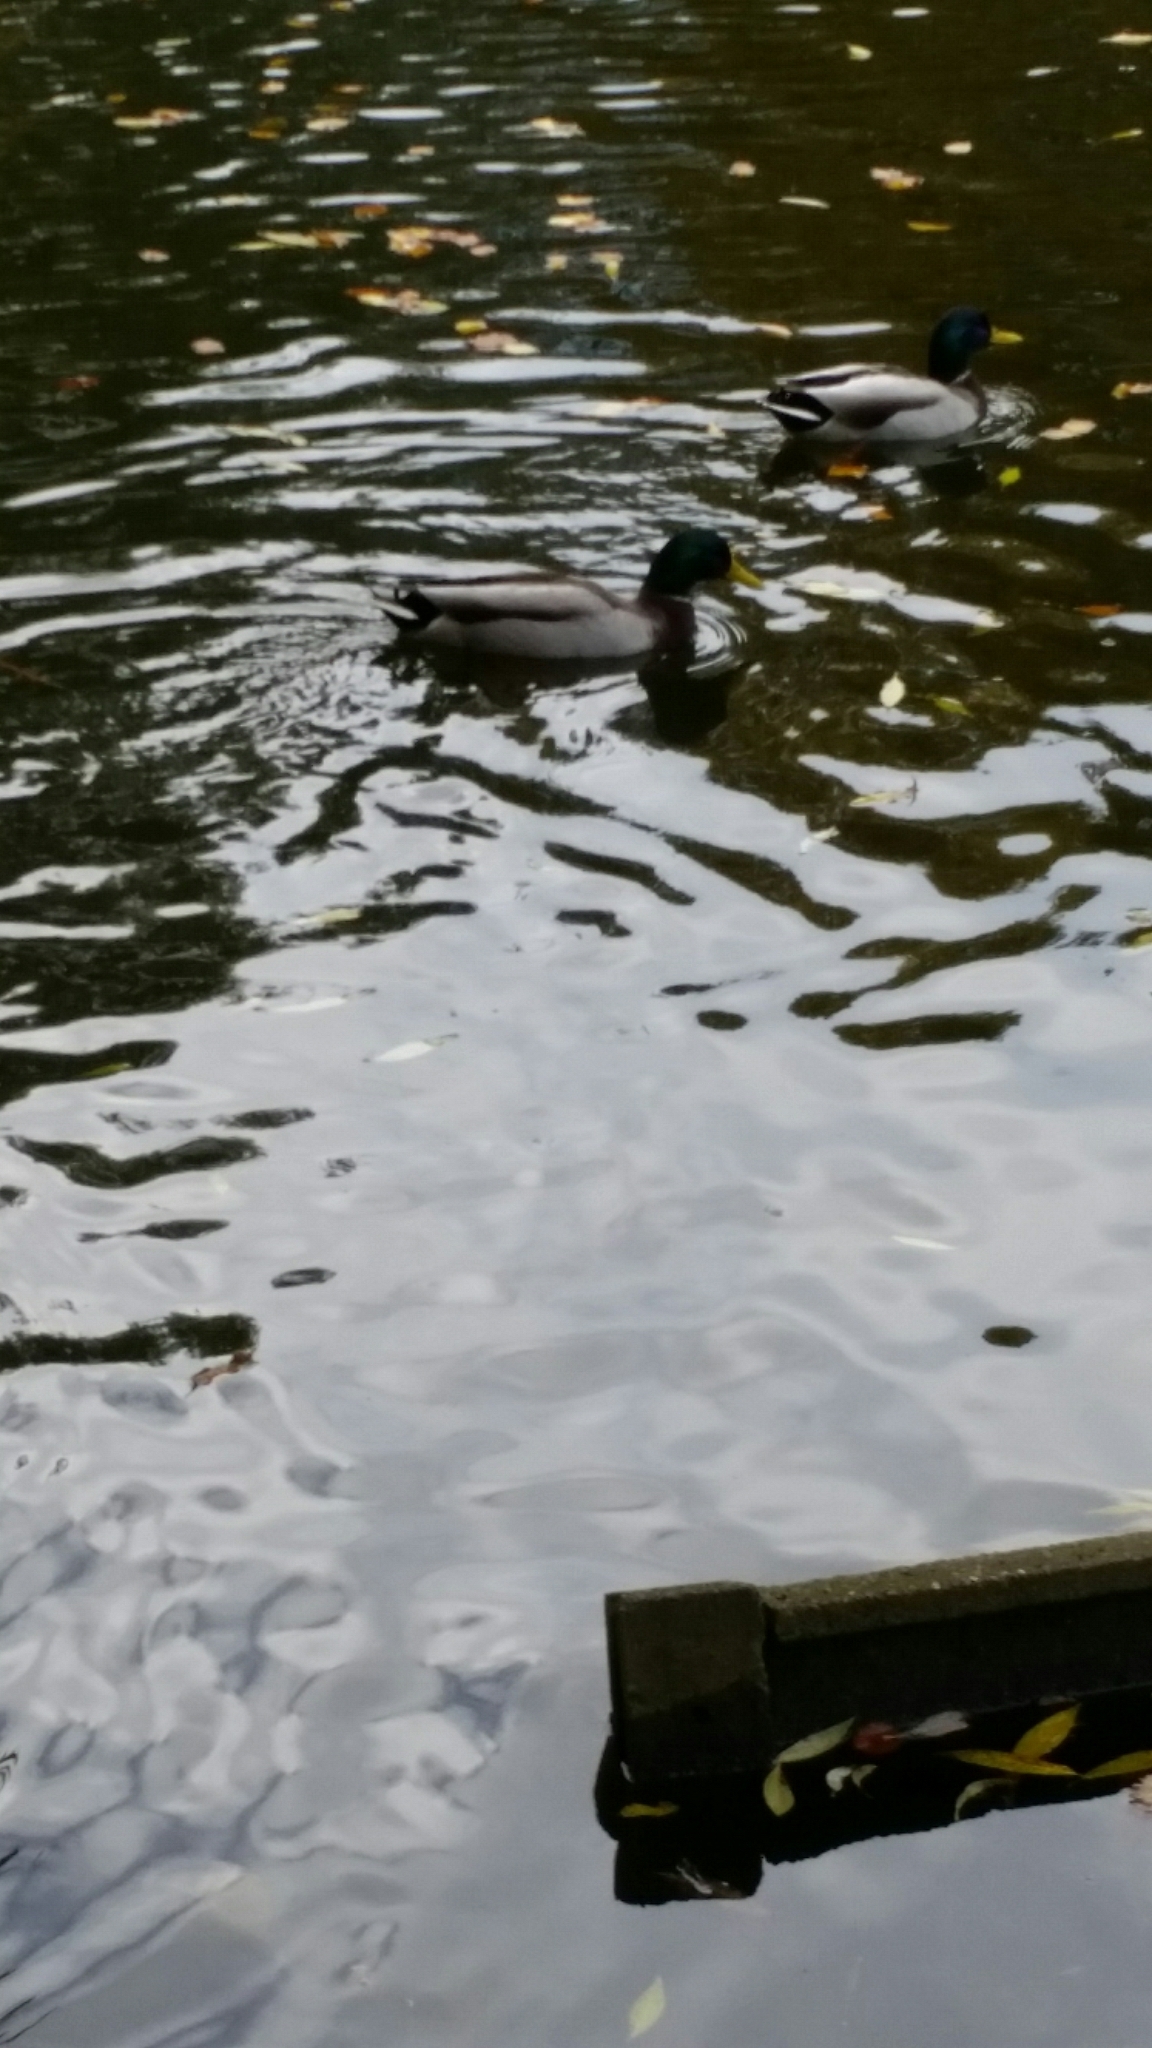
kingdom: Animalia
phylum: Chordata
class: Aves
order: Anseriformes
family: Anatidae
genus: Anas
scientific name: Anas platyrhynchos
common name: Mallard
